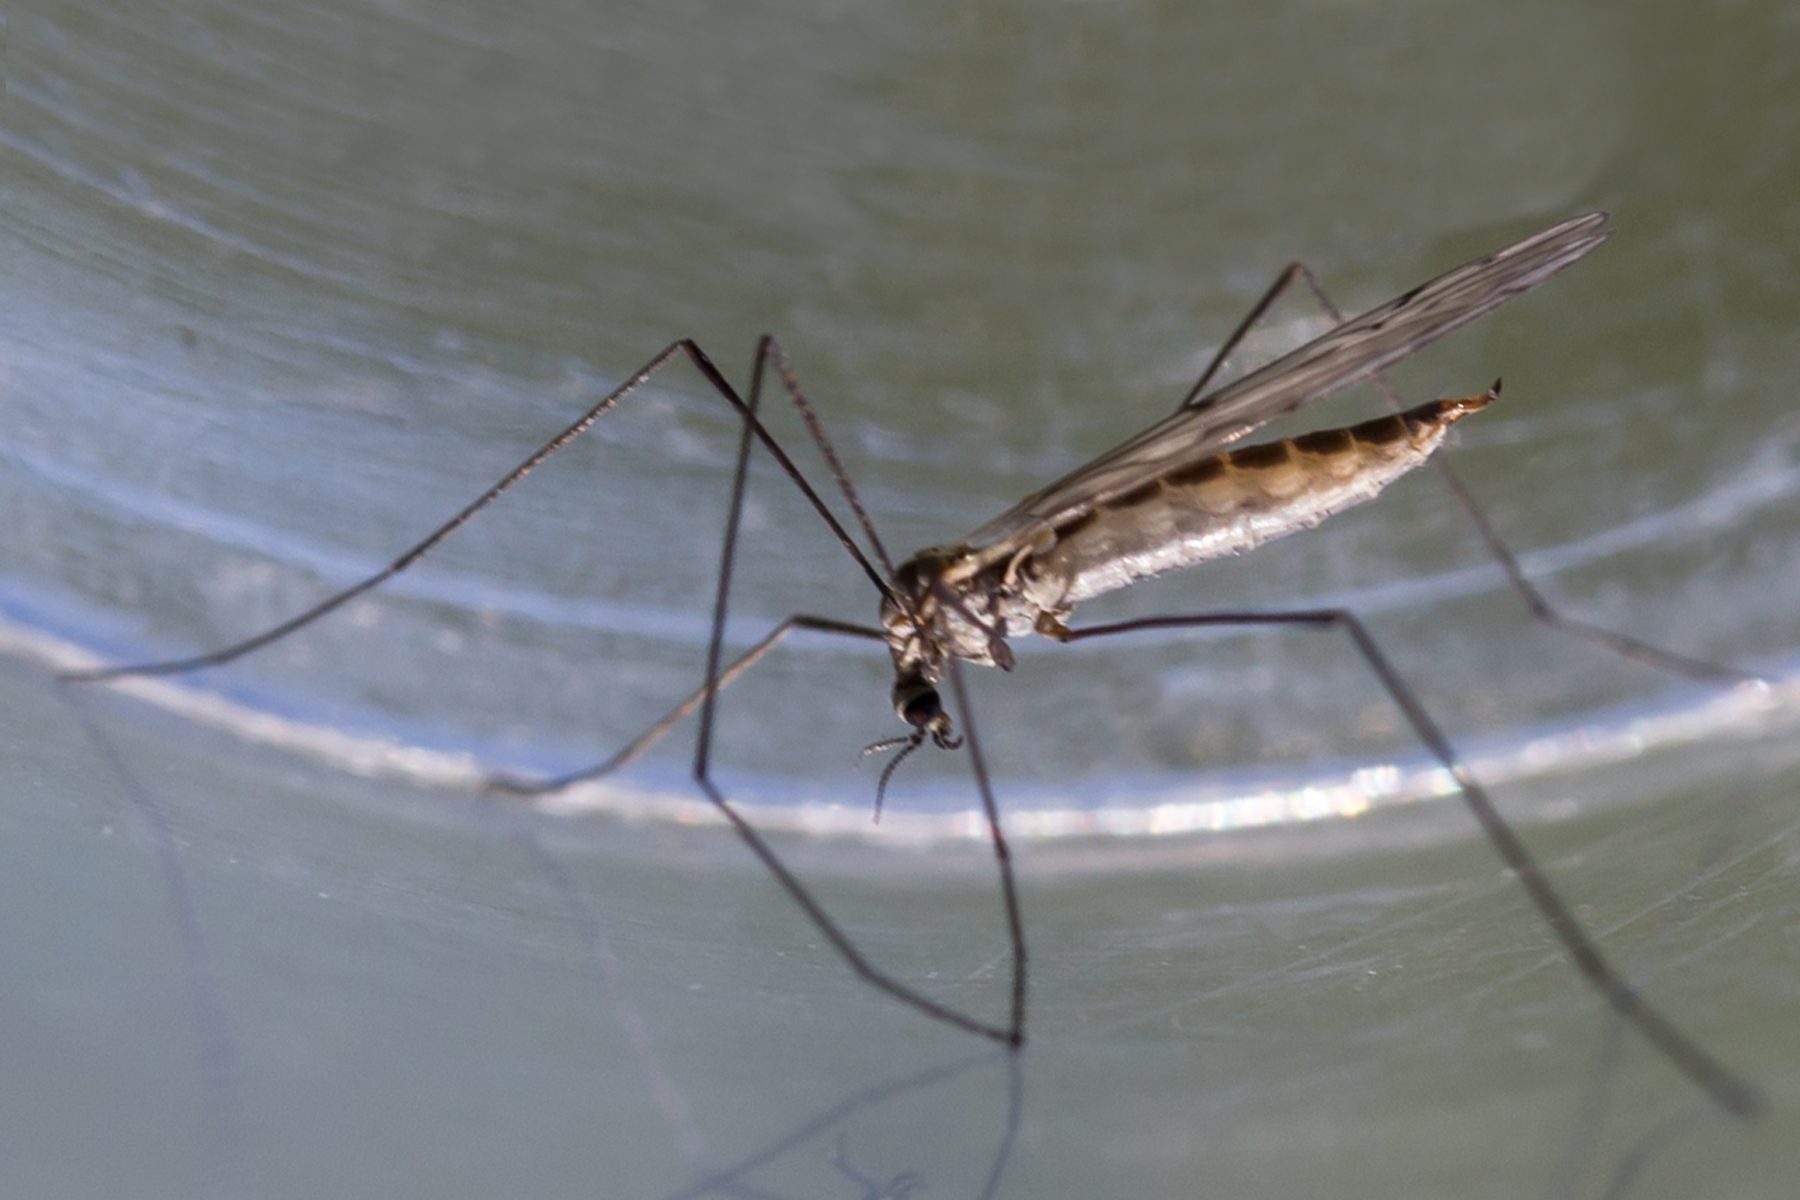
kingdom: Animalia
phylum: Arthropoda
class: Insecta
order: Diptera
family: Limoniidae
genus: Symplecta
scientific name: Symplecta cana
